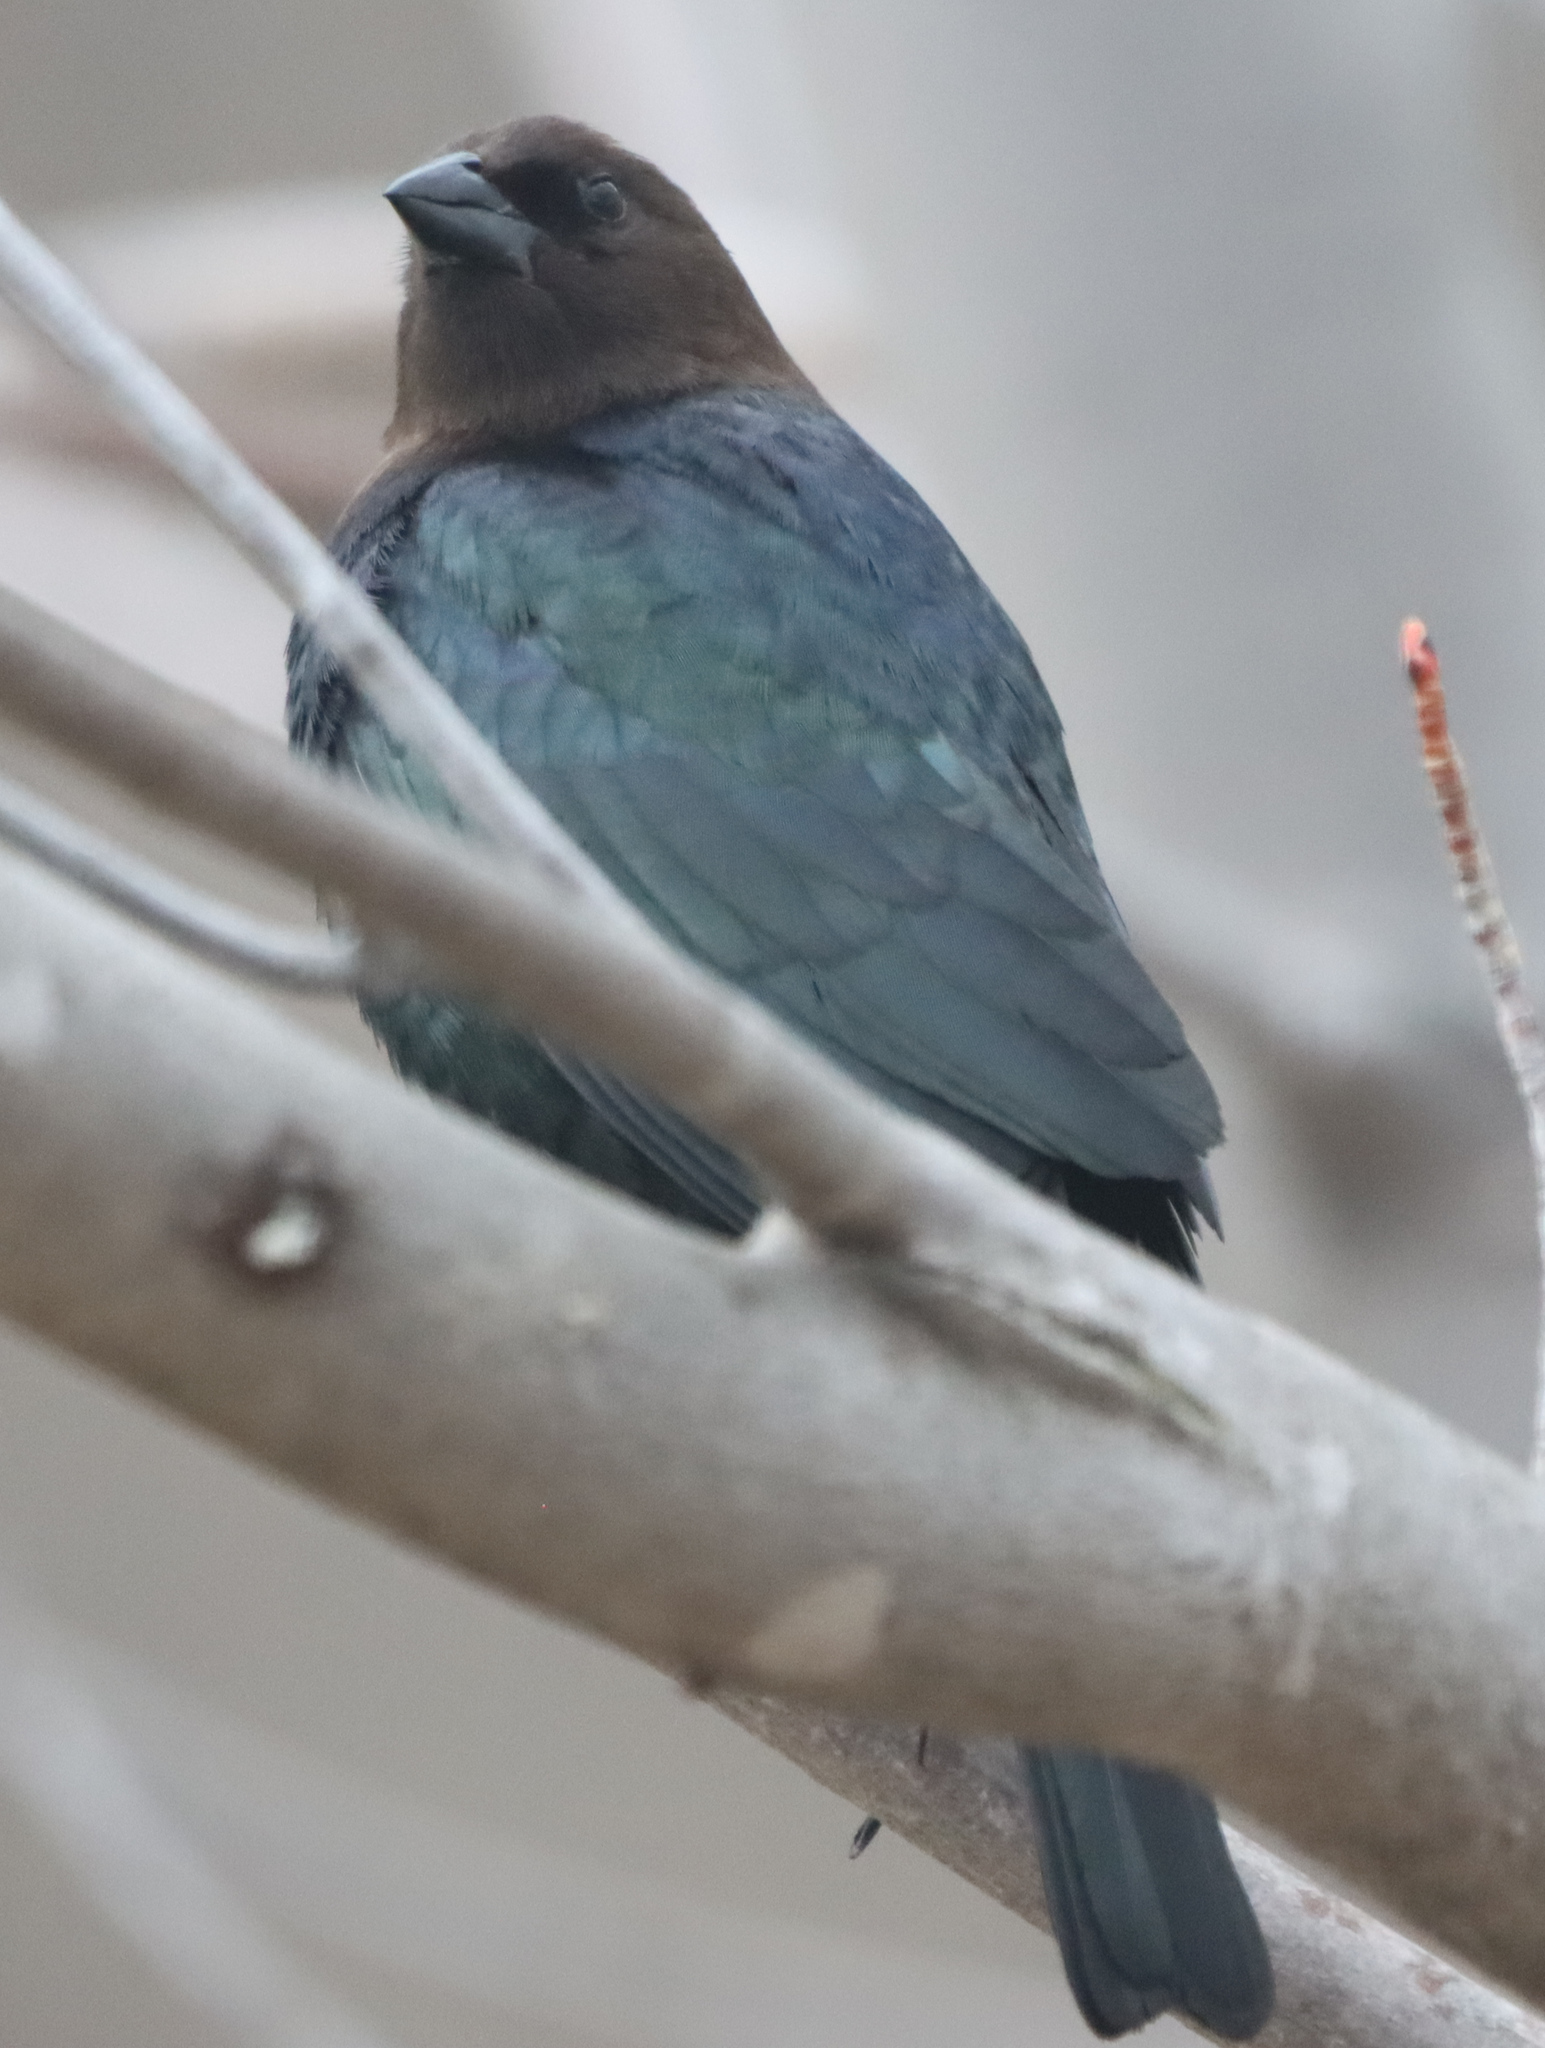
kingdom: Animalia
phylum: Chordata
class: Aves
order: Passeriformes
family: Icteridae
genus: Molothrus
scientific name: Molothrus ater
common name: Brown-headed cowbird
